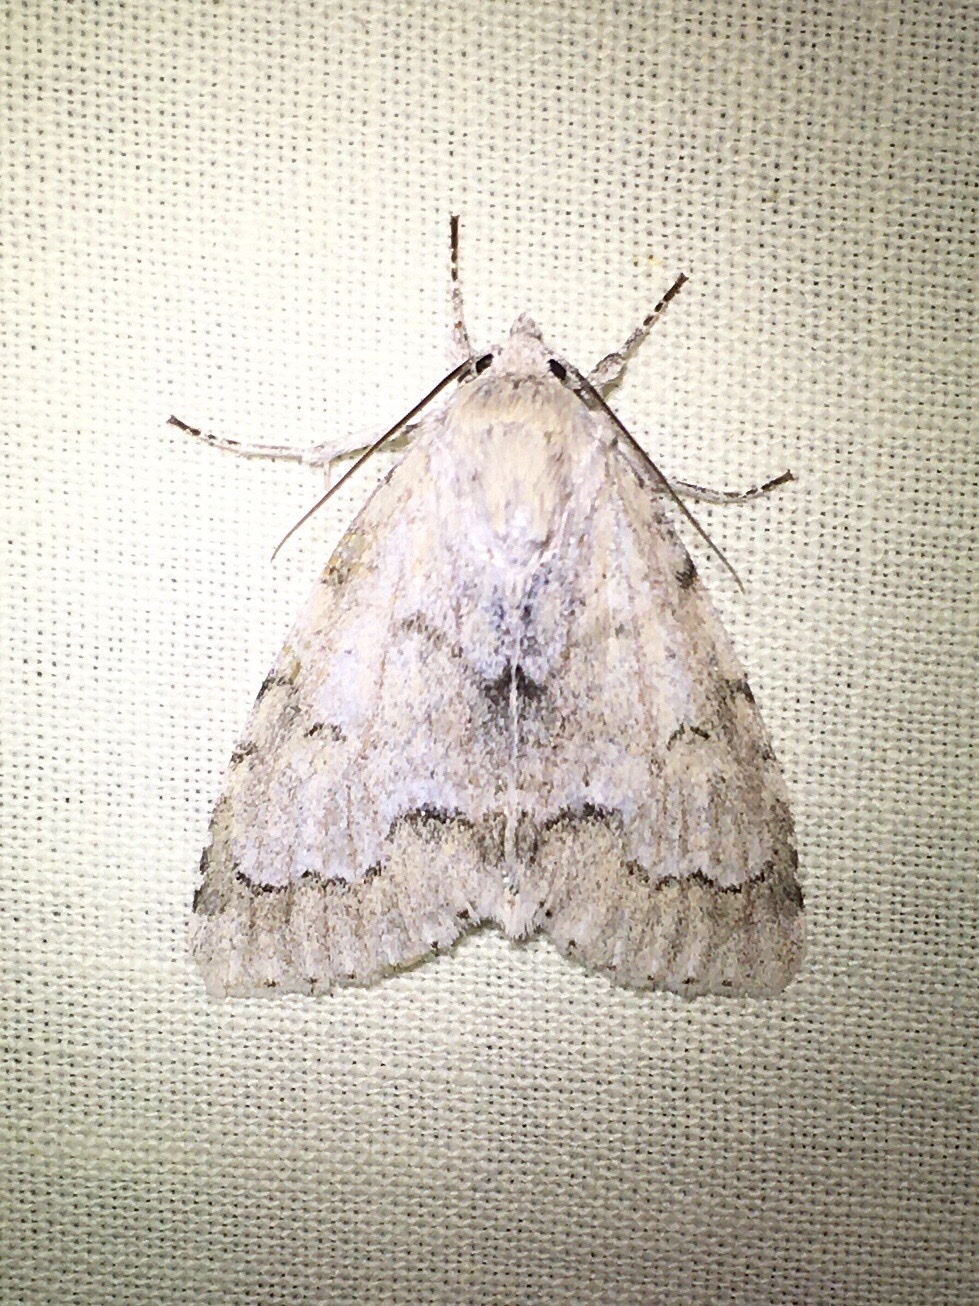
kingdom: Animalia
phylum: Arthropoda
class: Insecta
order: Lepidoptera
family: Noctuidae
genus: Acronicta
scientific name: Acronicta innotata
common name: Unmarked dagger
